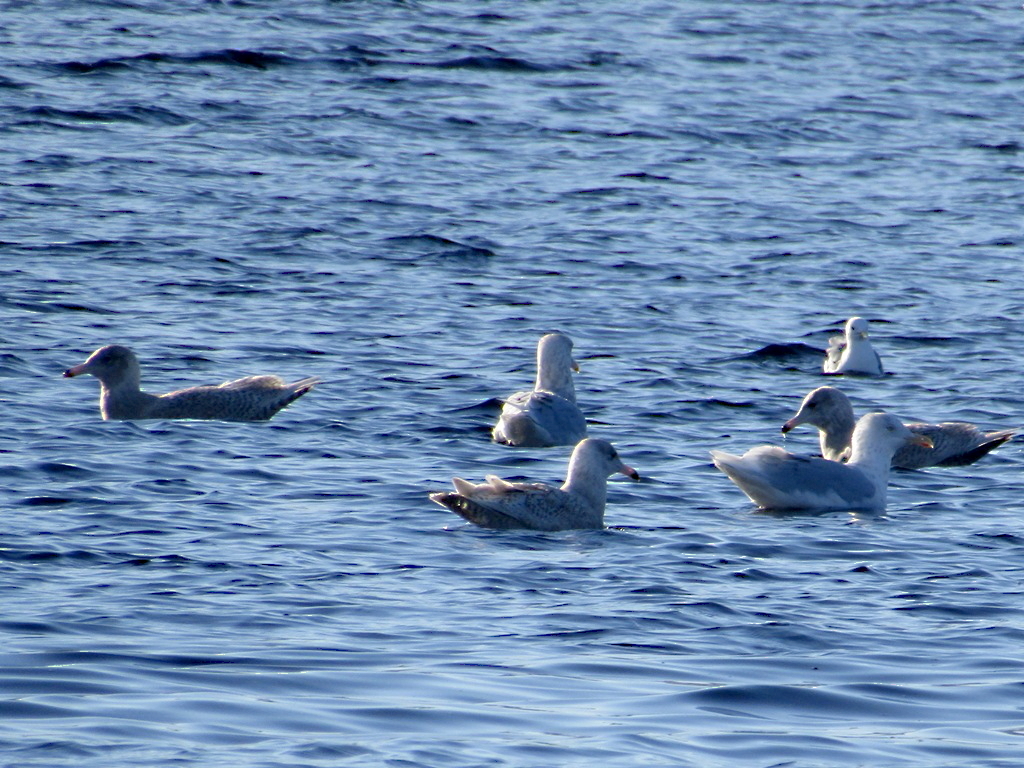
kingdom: Animalia
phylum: Chordata
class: Aves
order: Charadriiformes
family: Laridae
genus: Larus
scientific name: Larus hyperboreus
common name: Glaucous gull
